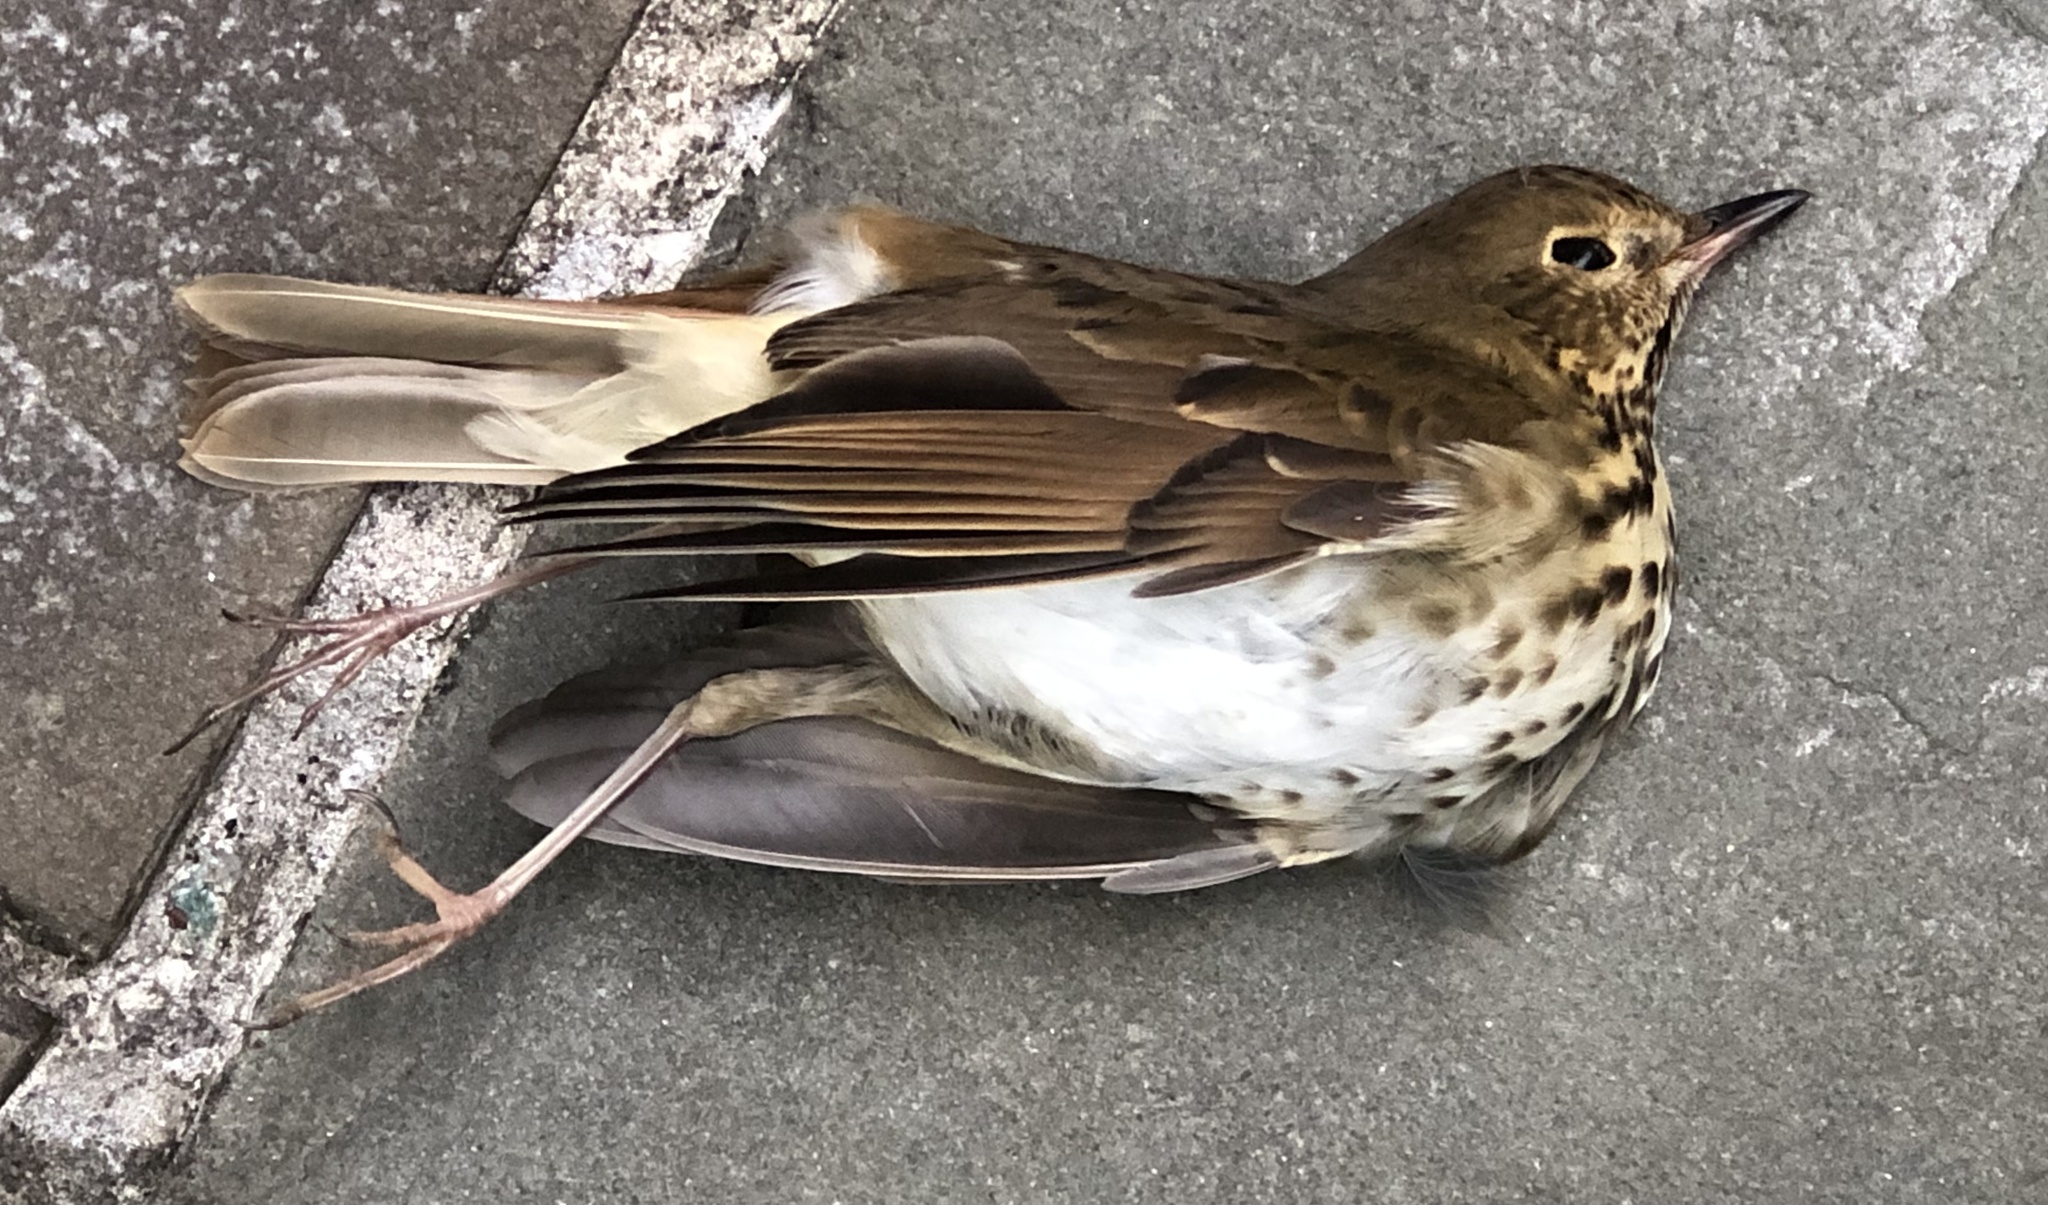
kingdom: Animalia
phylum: Chordata
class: Aves
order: Passeriformes
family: Turdidae
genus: Catharus
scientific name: Catharus guttatus
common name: Hermit thrush
